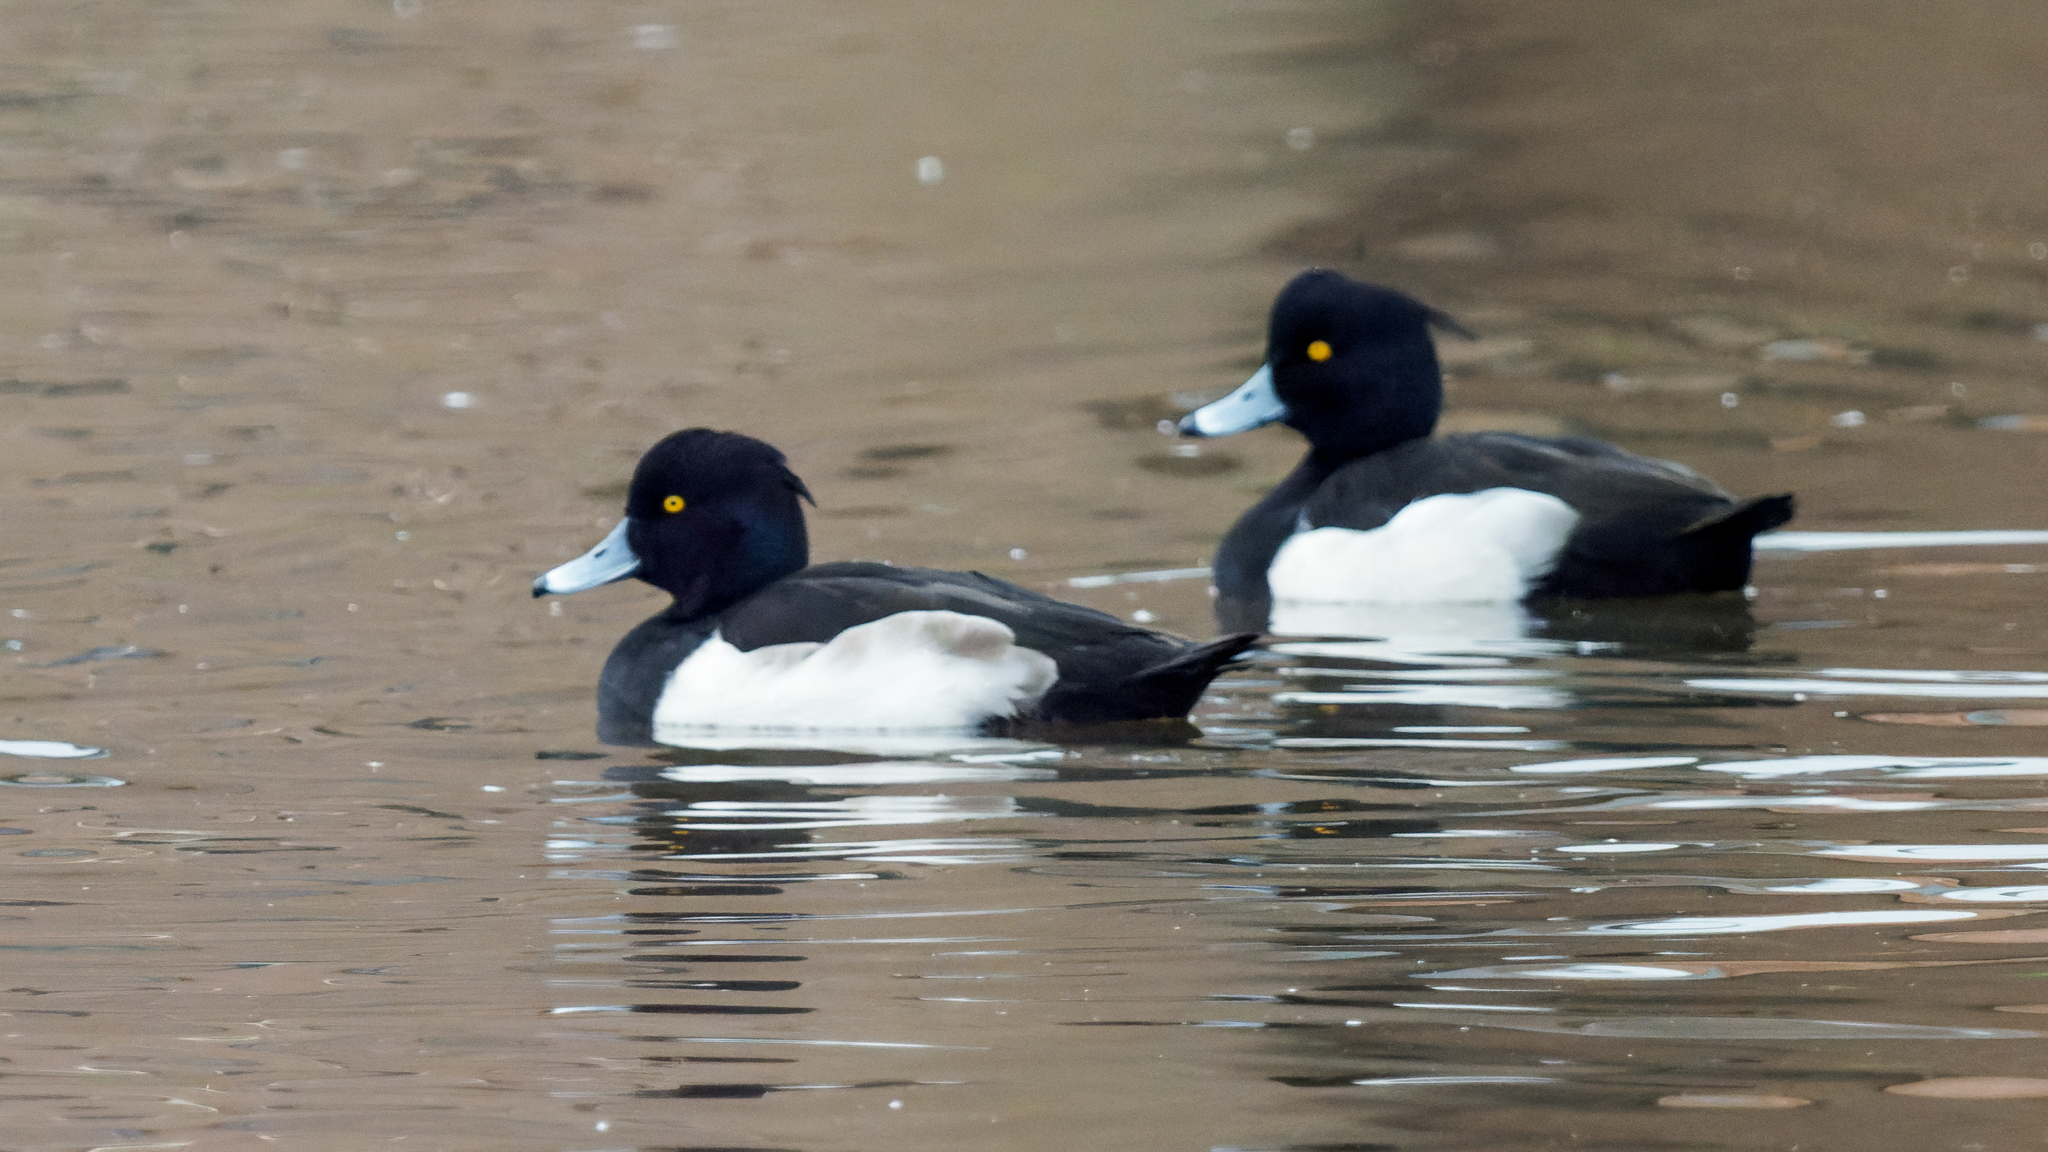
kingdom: Animalia
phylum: Chordata
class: Aves
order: Anseriformes
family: Anatidae
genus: Aythya
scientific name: Aythya fuligula
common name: Tufted duck
